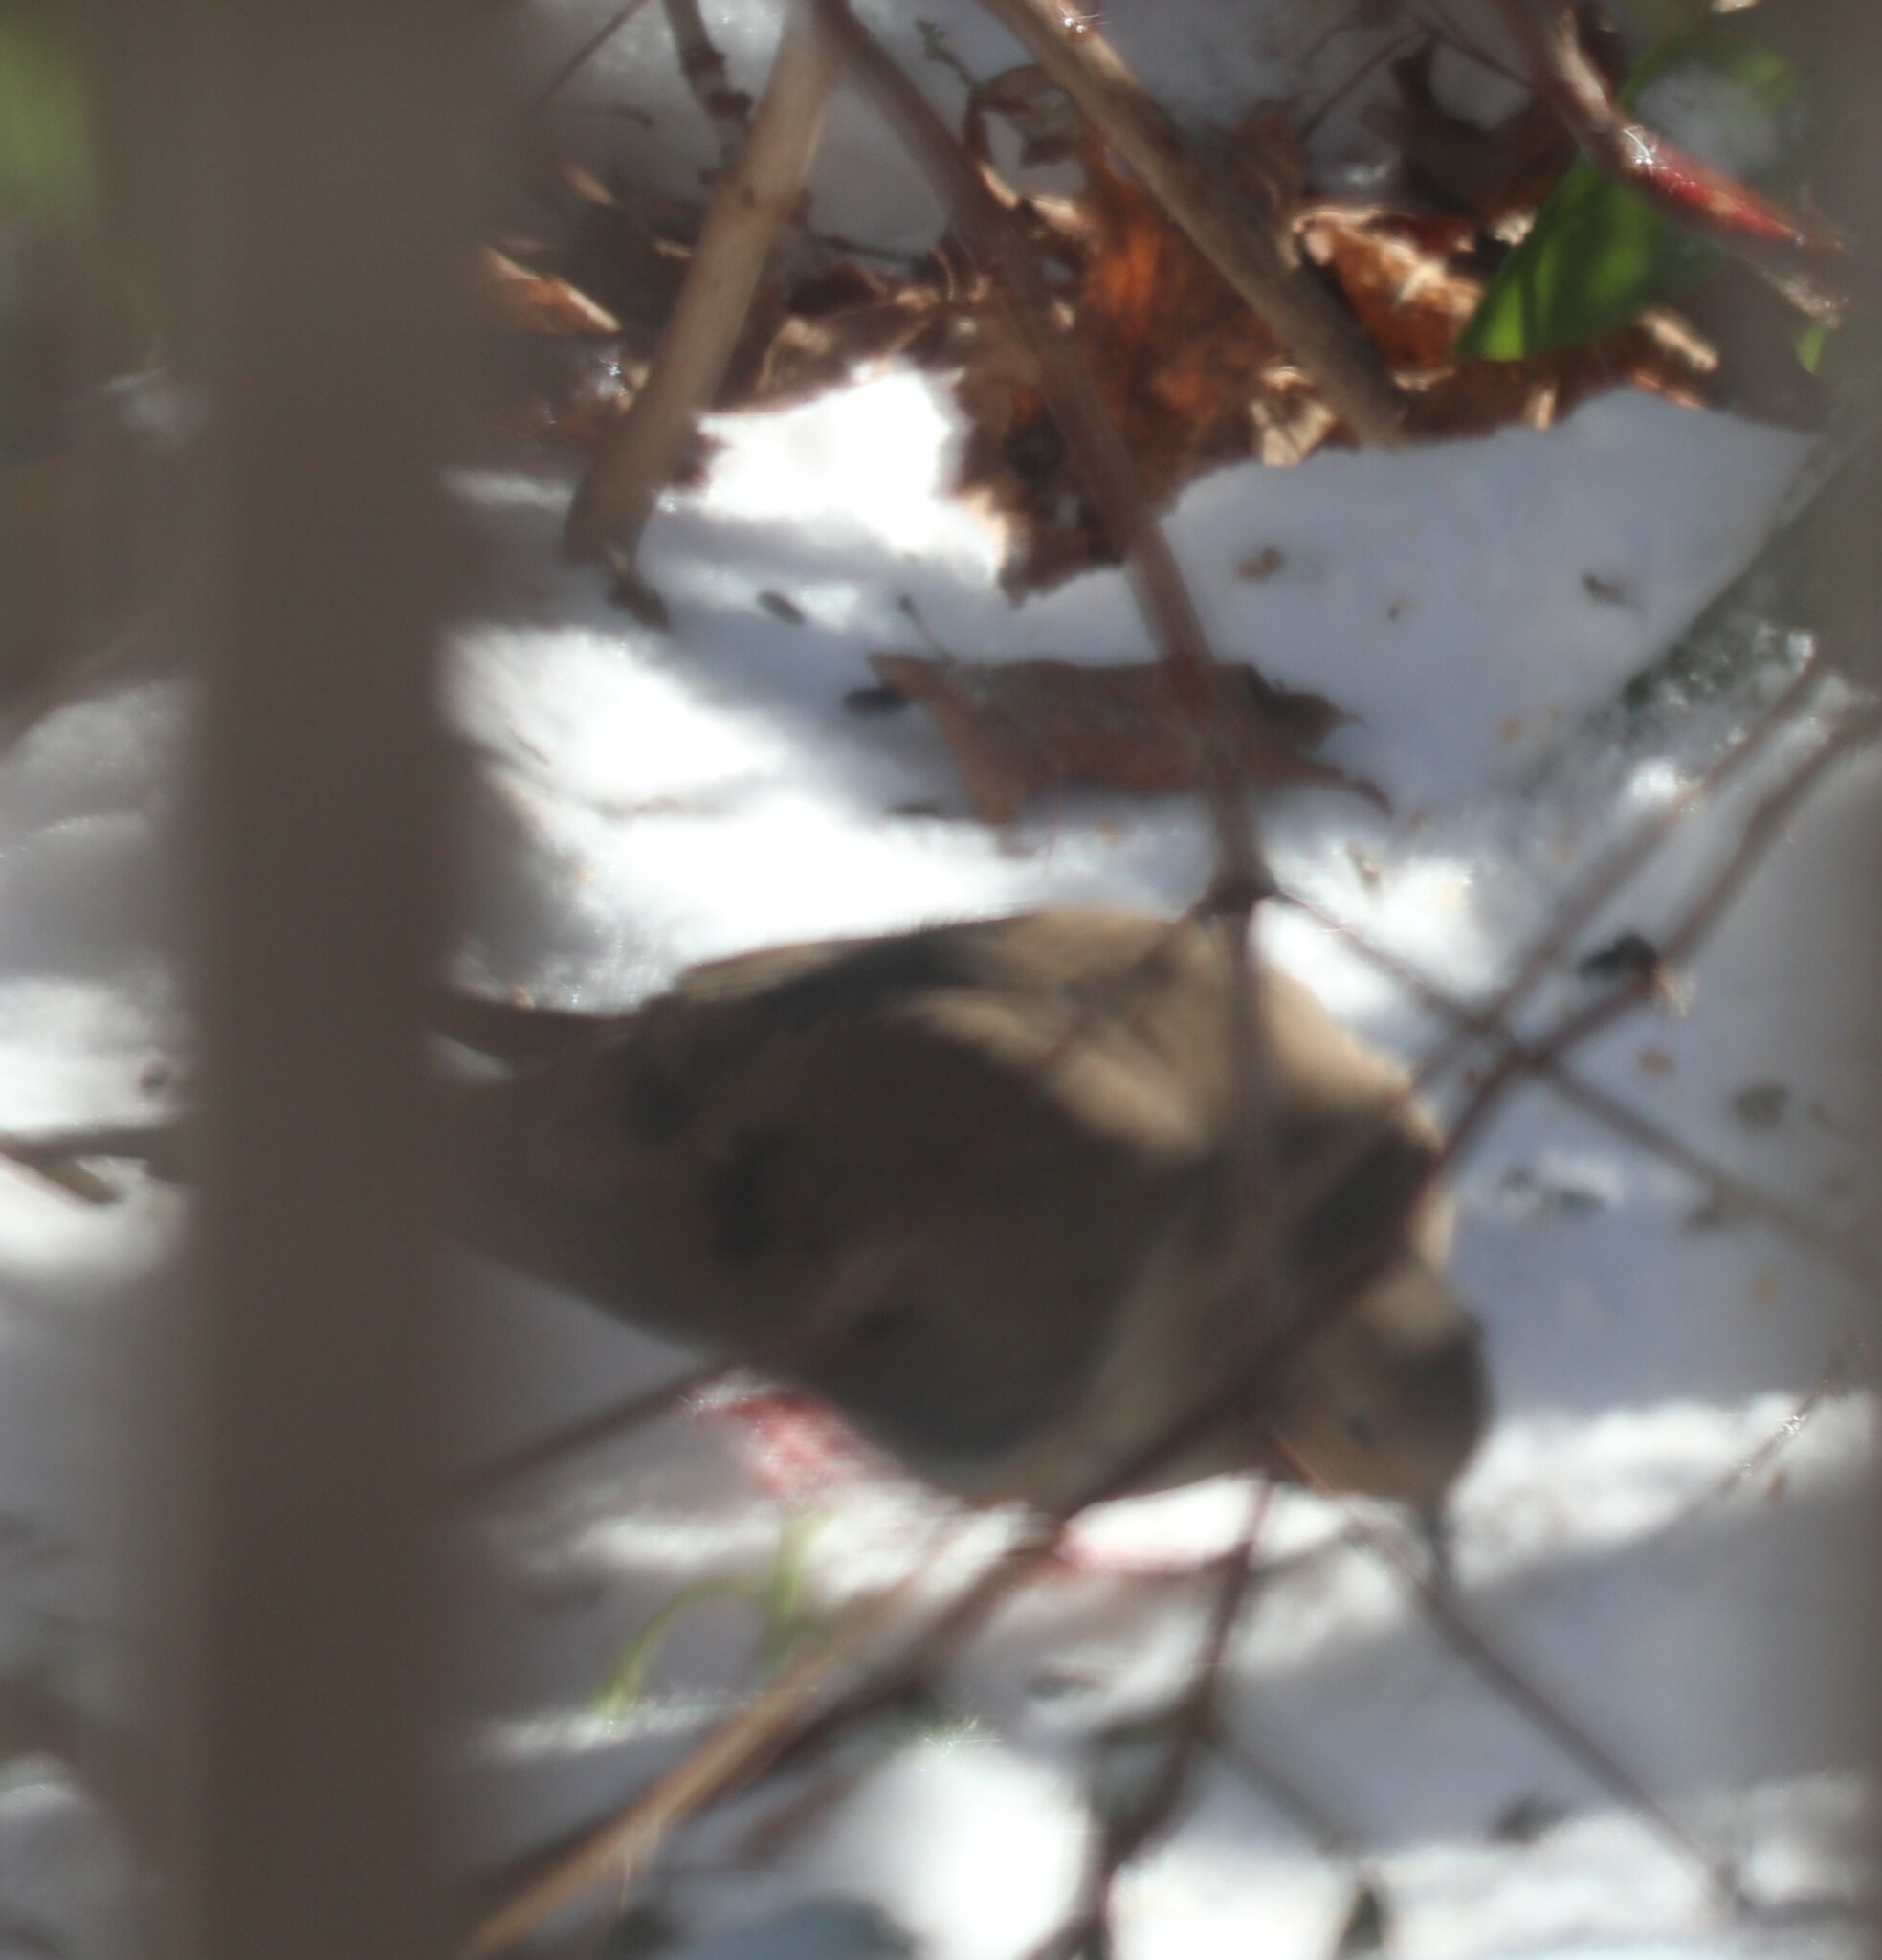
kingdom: Animalia
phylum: Chordata
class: Aves
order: Columbiformes
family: Columbidae
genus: Zenaida
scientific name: Zenaida macroura
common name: Mourning dove
